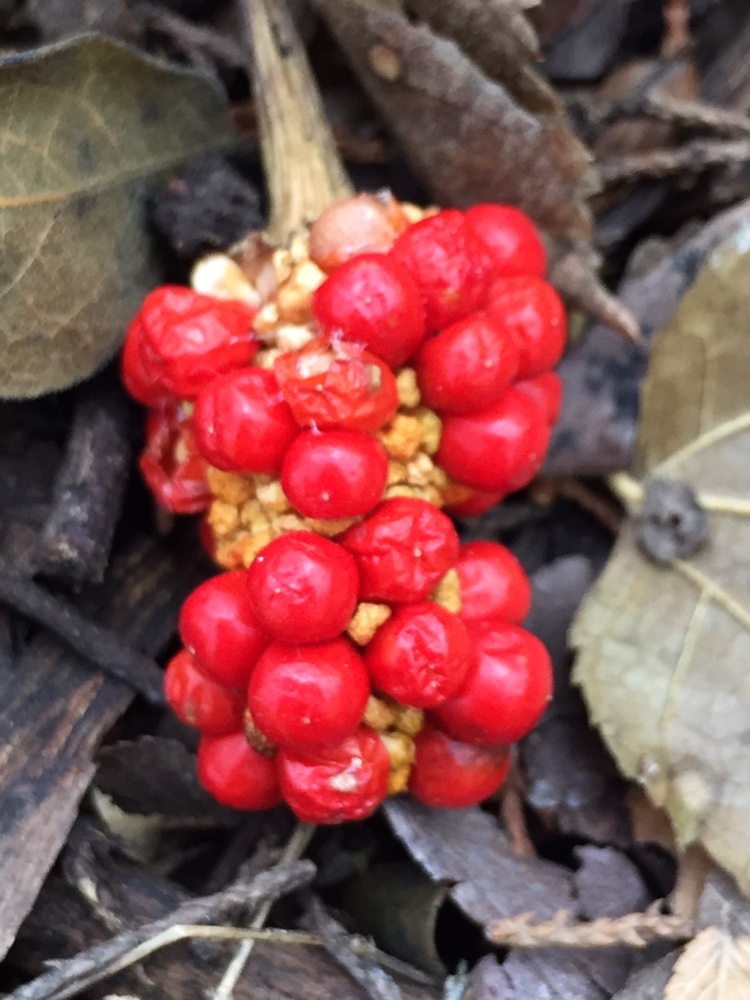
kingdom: Plantae
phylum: Tracheophyta
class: Liliopsida
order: Alismatales
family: Araceae
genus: Arisaema
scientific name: Arisaema dracontium
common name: Dragon-arum
